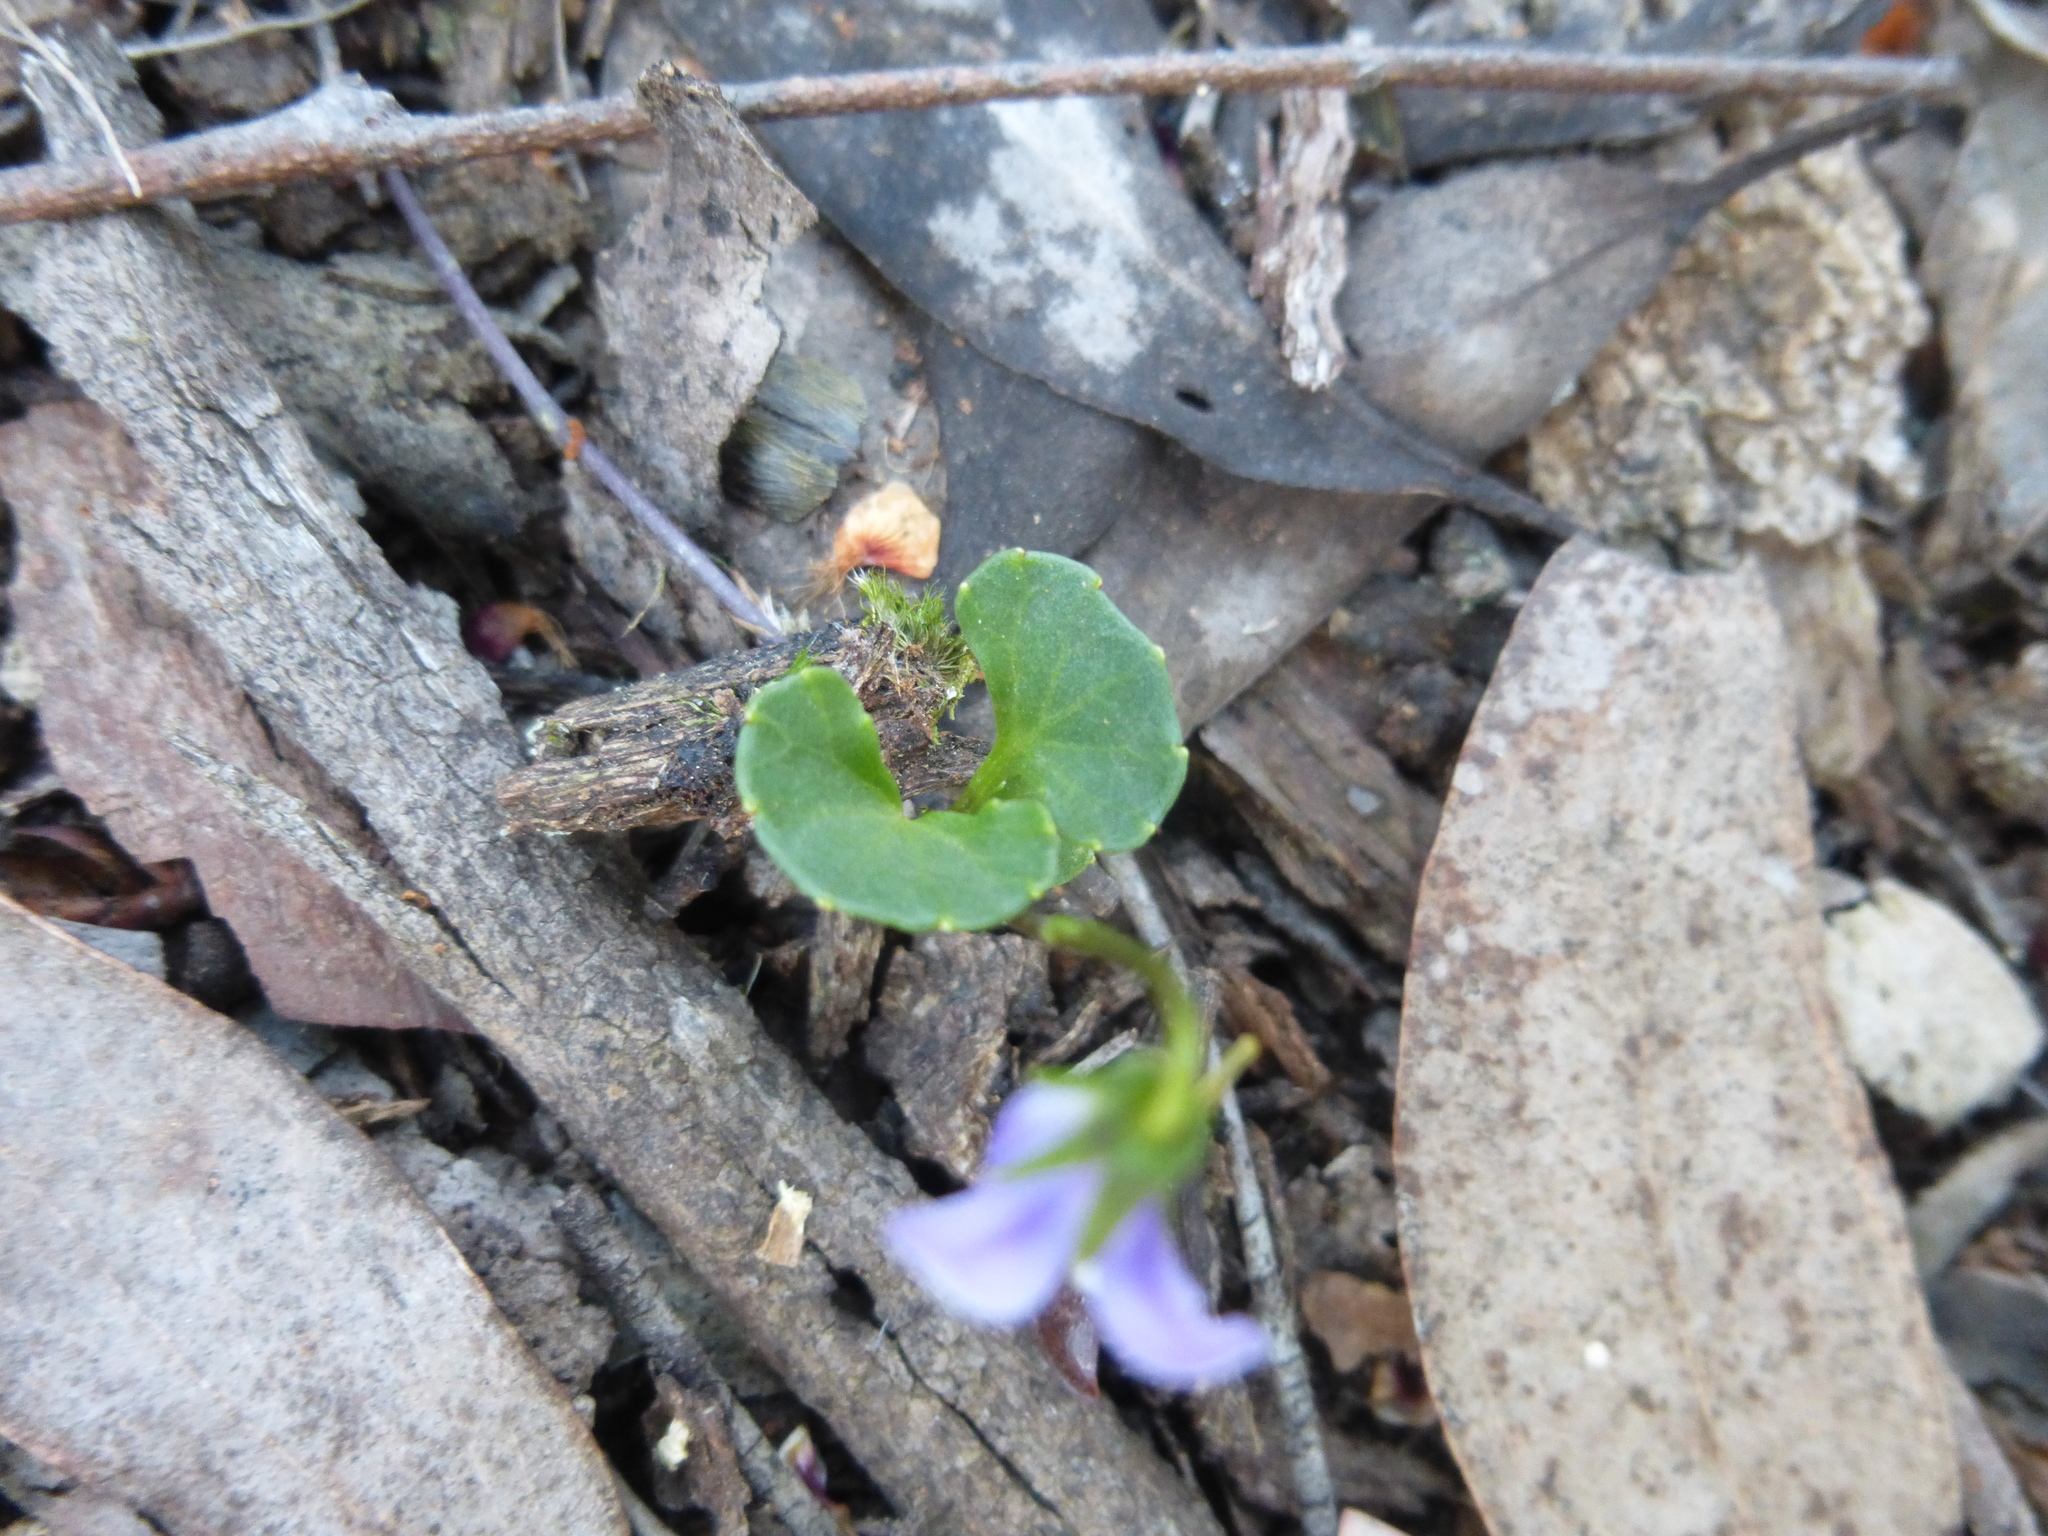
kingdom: Plantae
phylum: Tracheophyta
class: Magnoliopsida
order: Malpighiales
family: Violaceae
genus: Viola
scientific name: Viola hederacea
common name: Australian violet
